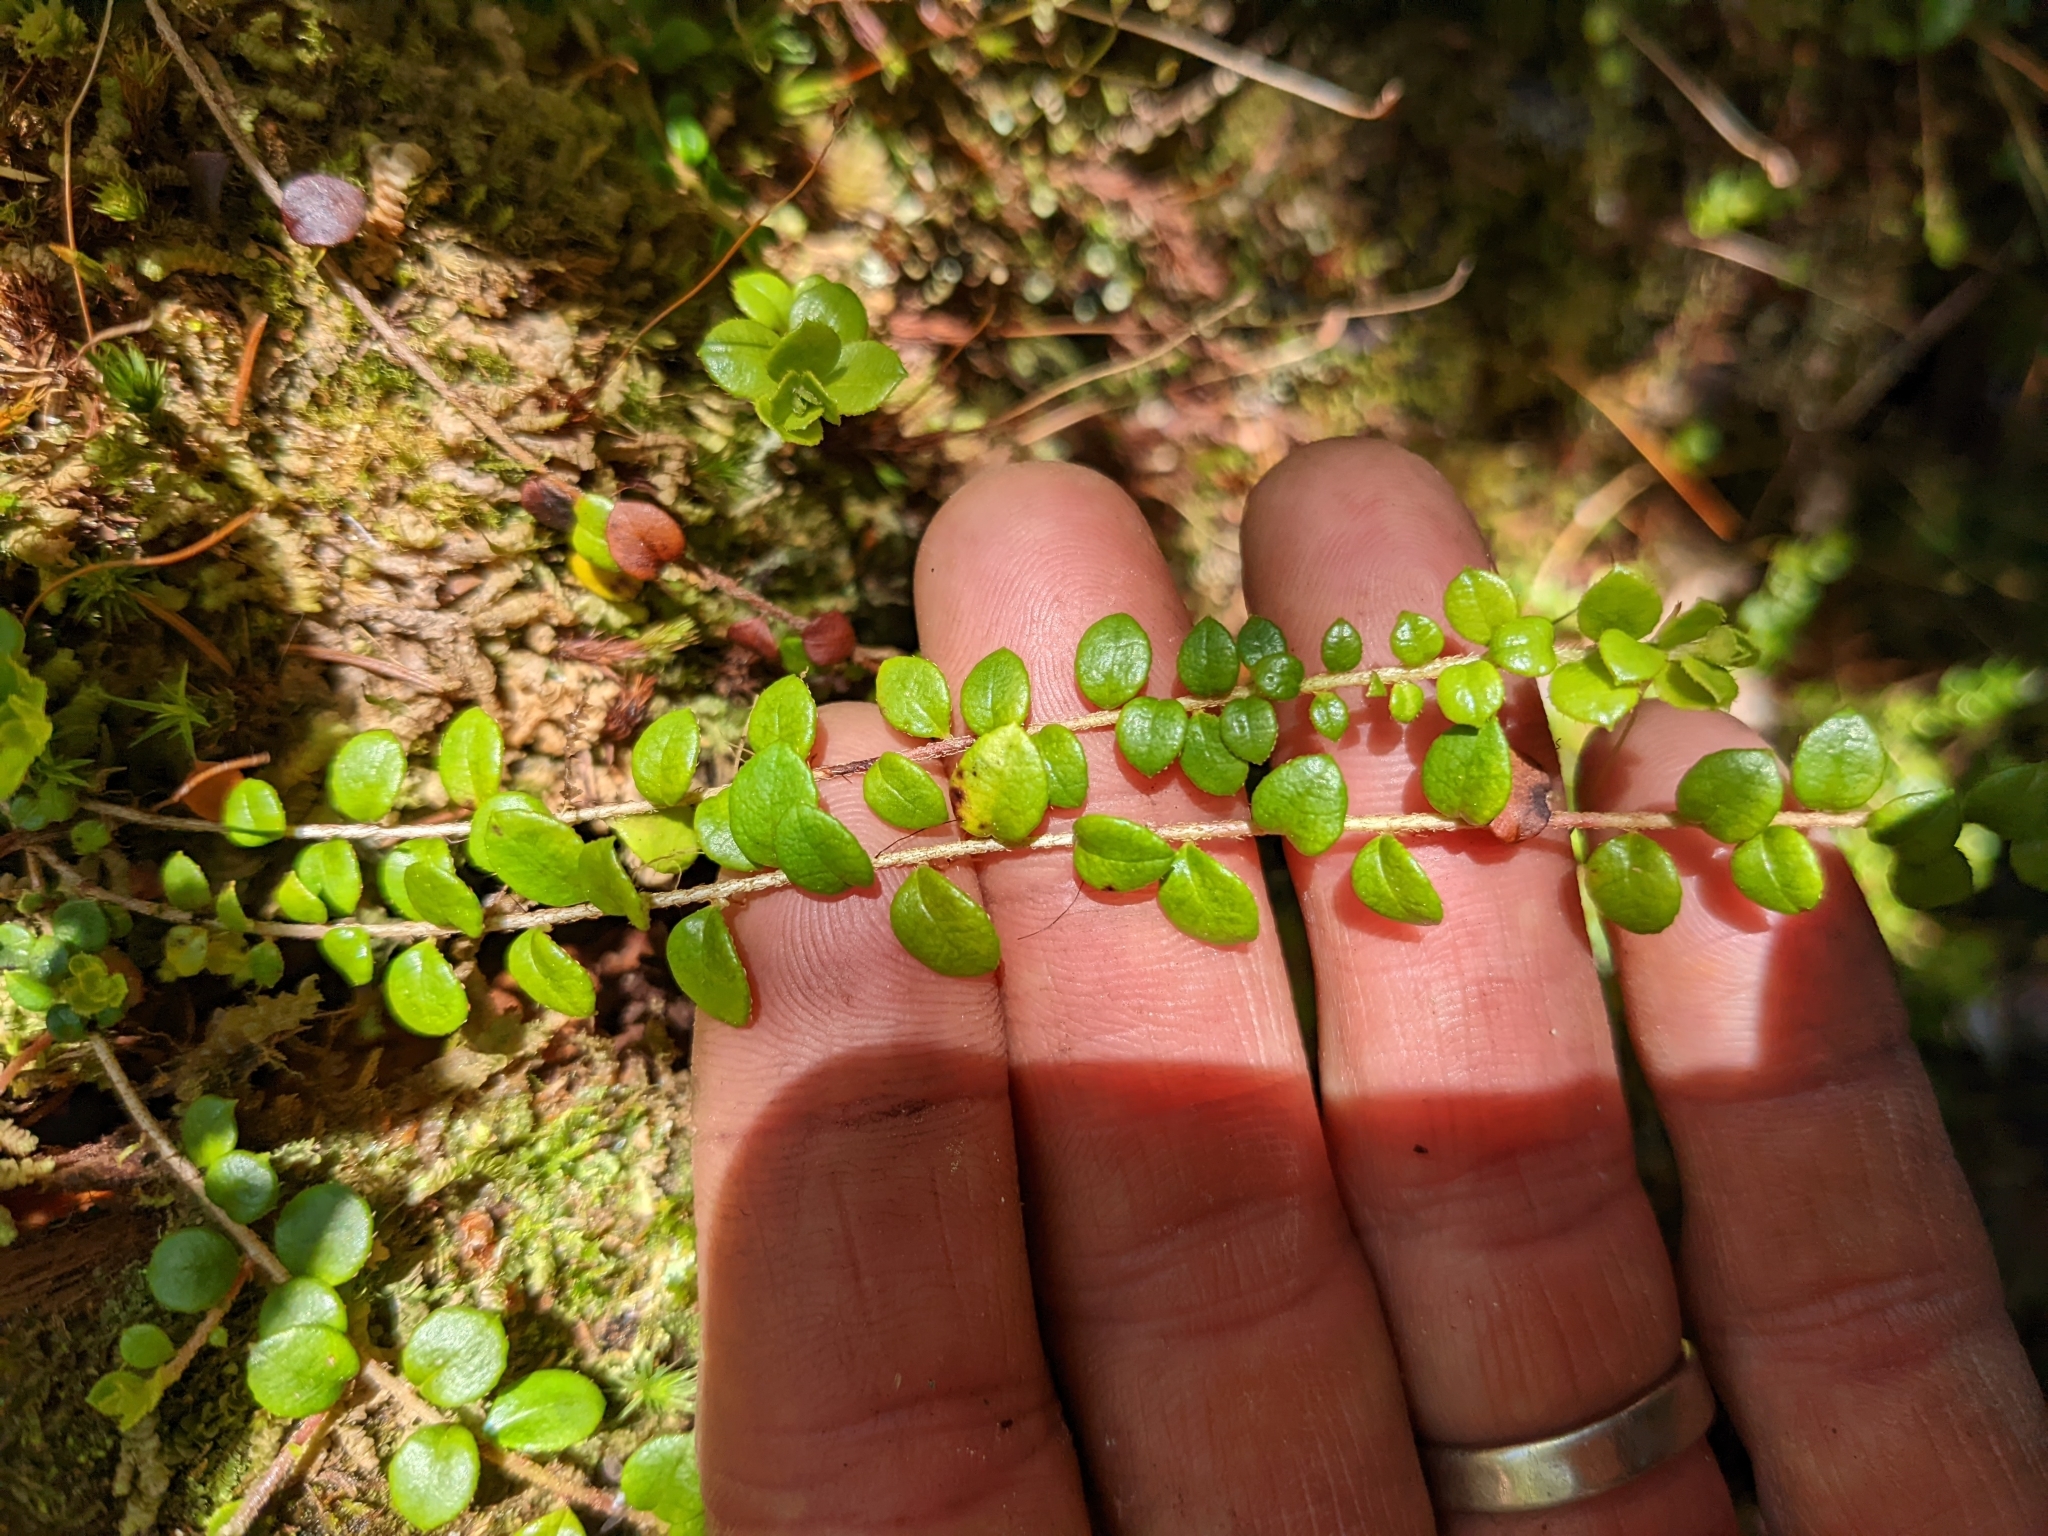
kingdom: Plantae
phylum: Tracheophyta
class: Magnoliopsida
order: Ericales
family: Ericaceae
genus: Gaultheria
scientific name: Gaultheria hispidula
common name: Cancer wintergreen
